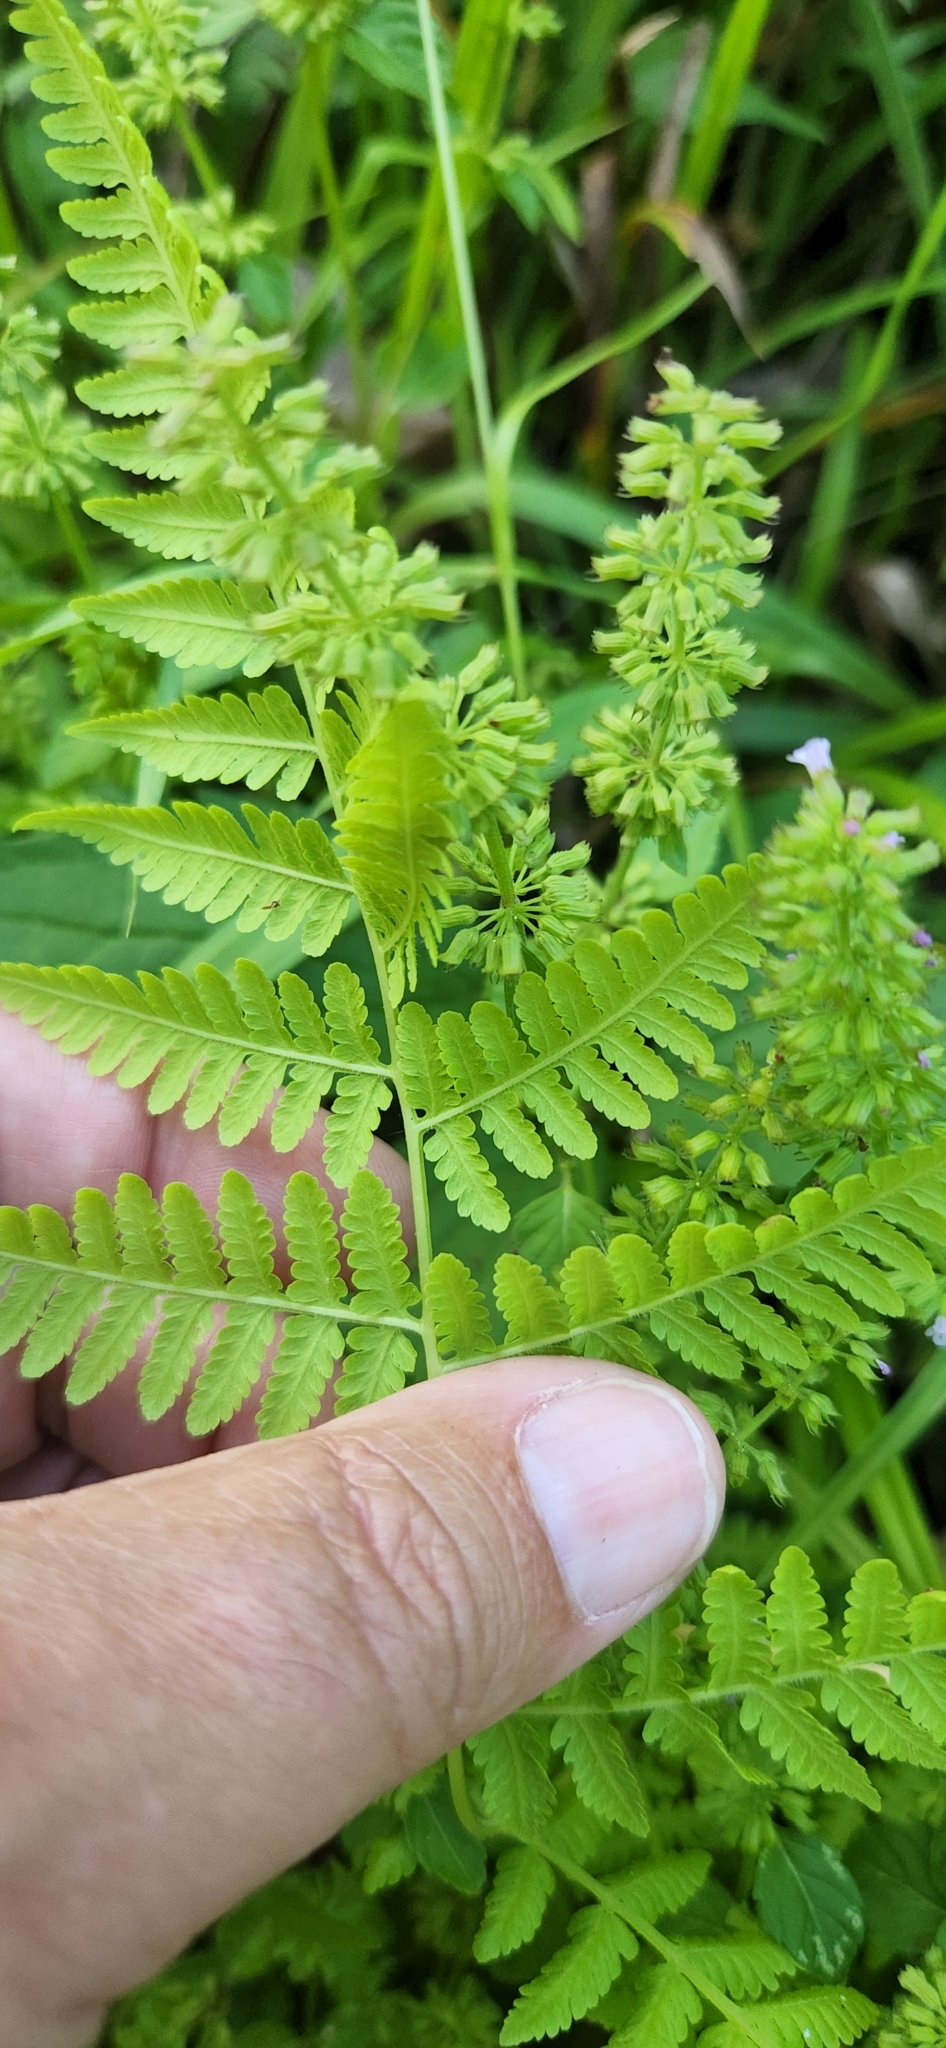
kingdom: Plantae
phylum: Tracheophyta
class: Polypodiopsida
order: Polypodiales
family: Thelypteridaceae
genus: Macrothelypteris
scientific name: Macrothelypteris torresiana
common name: Swordfern
